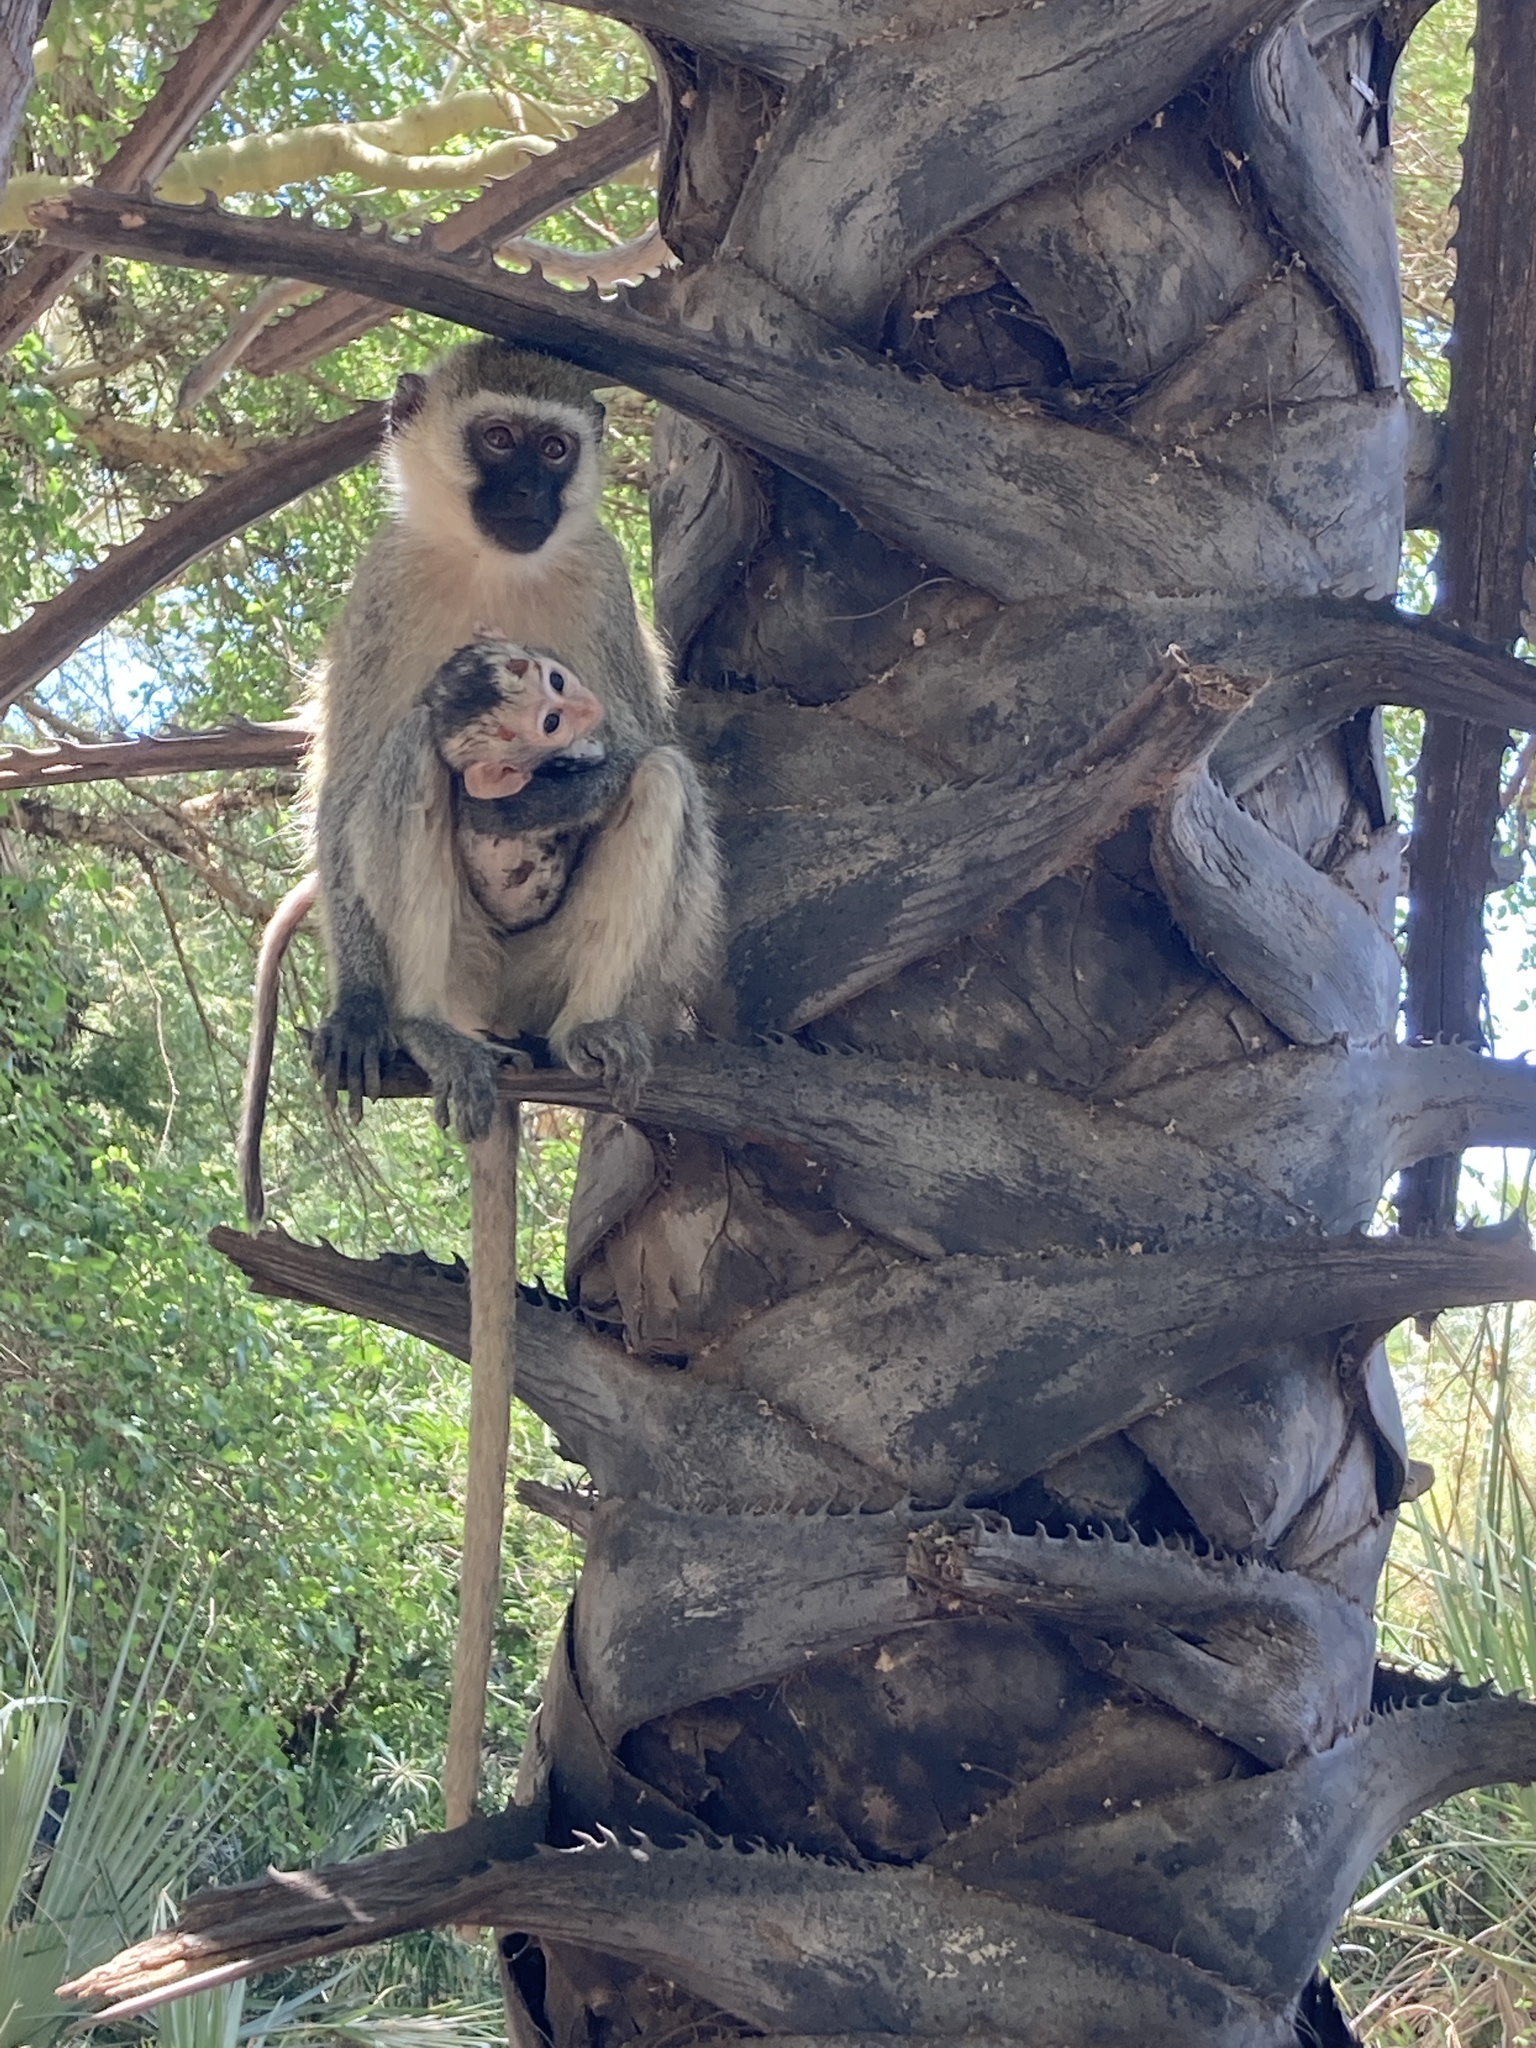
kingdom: Animalia
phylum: Chordata
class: Mammalia
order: Primates
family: Cercopithecidae
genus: Chlorocebus
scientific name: Chlorocebus pygerythrus
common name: Vervet monkey
